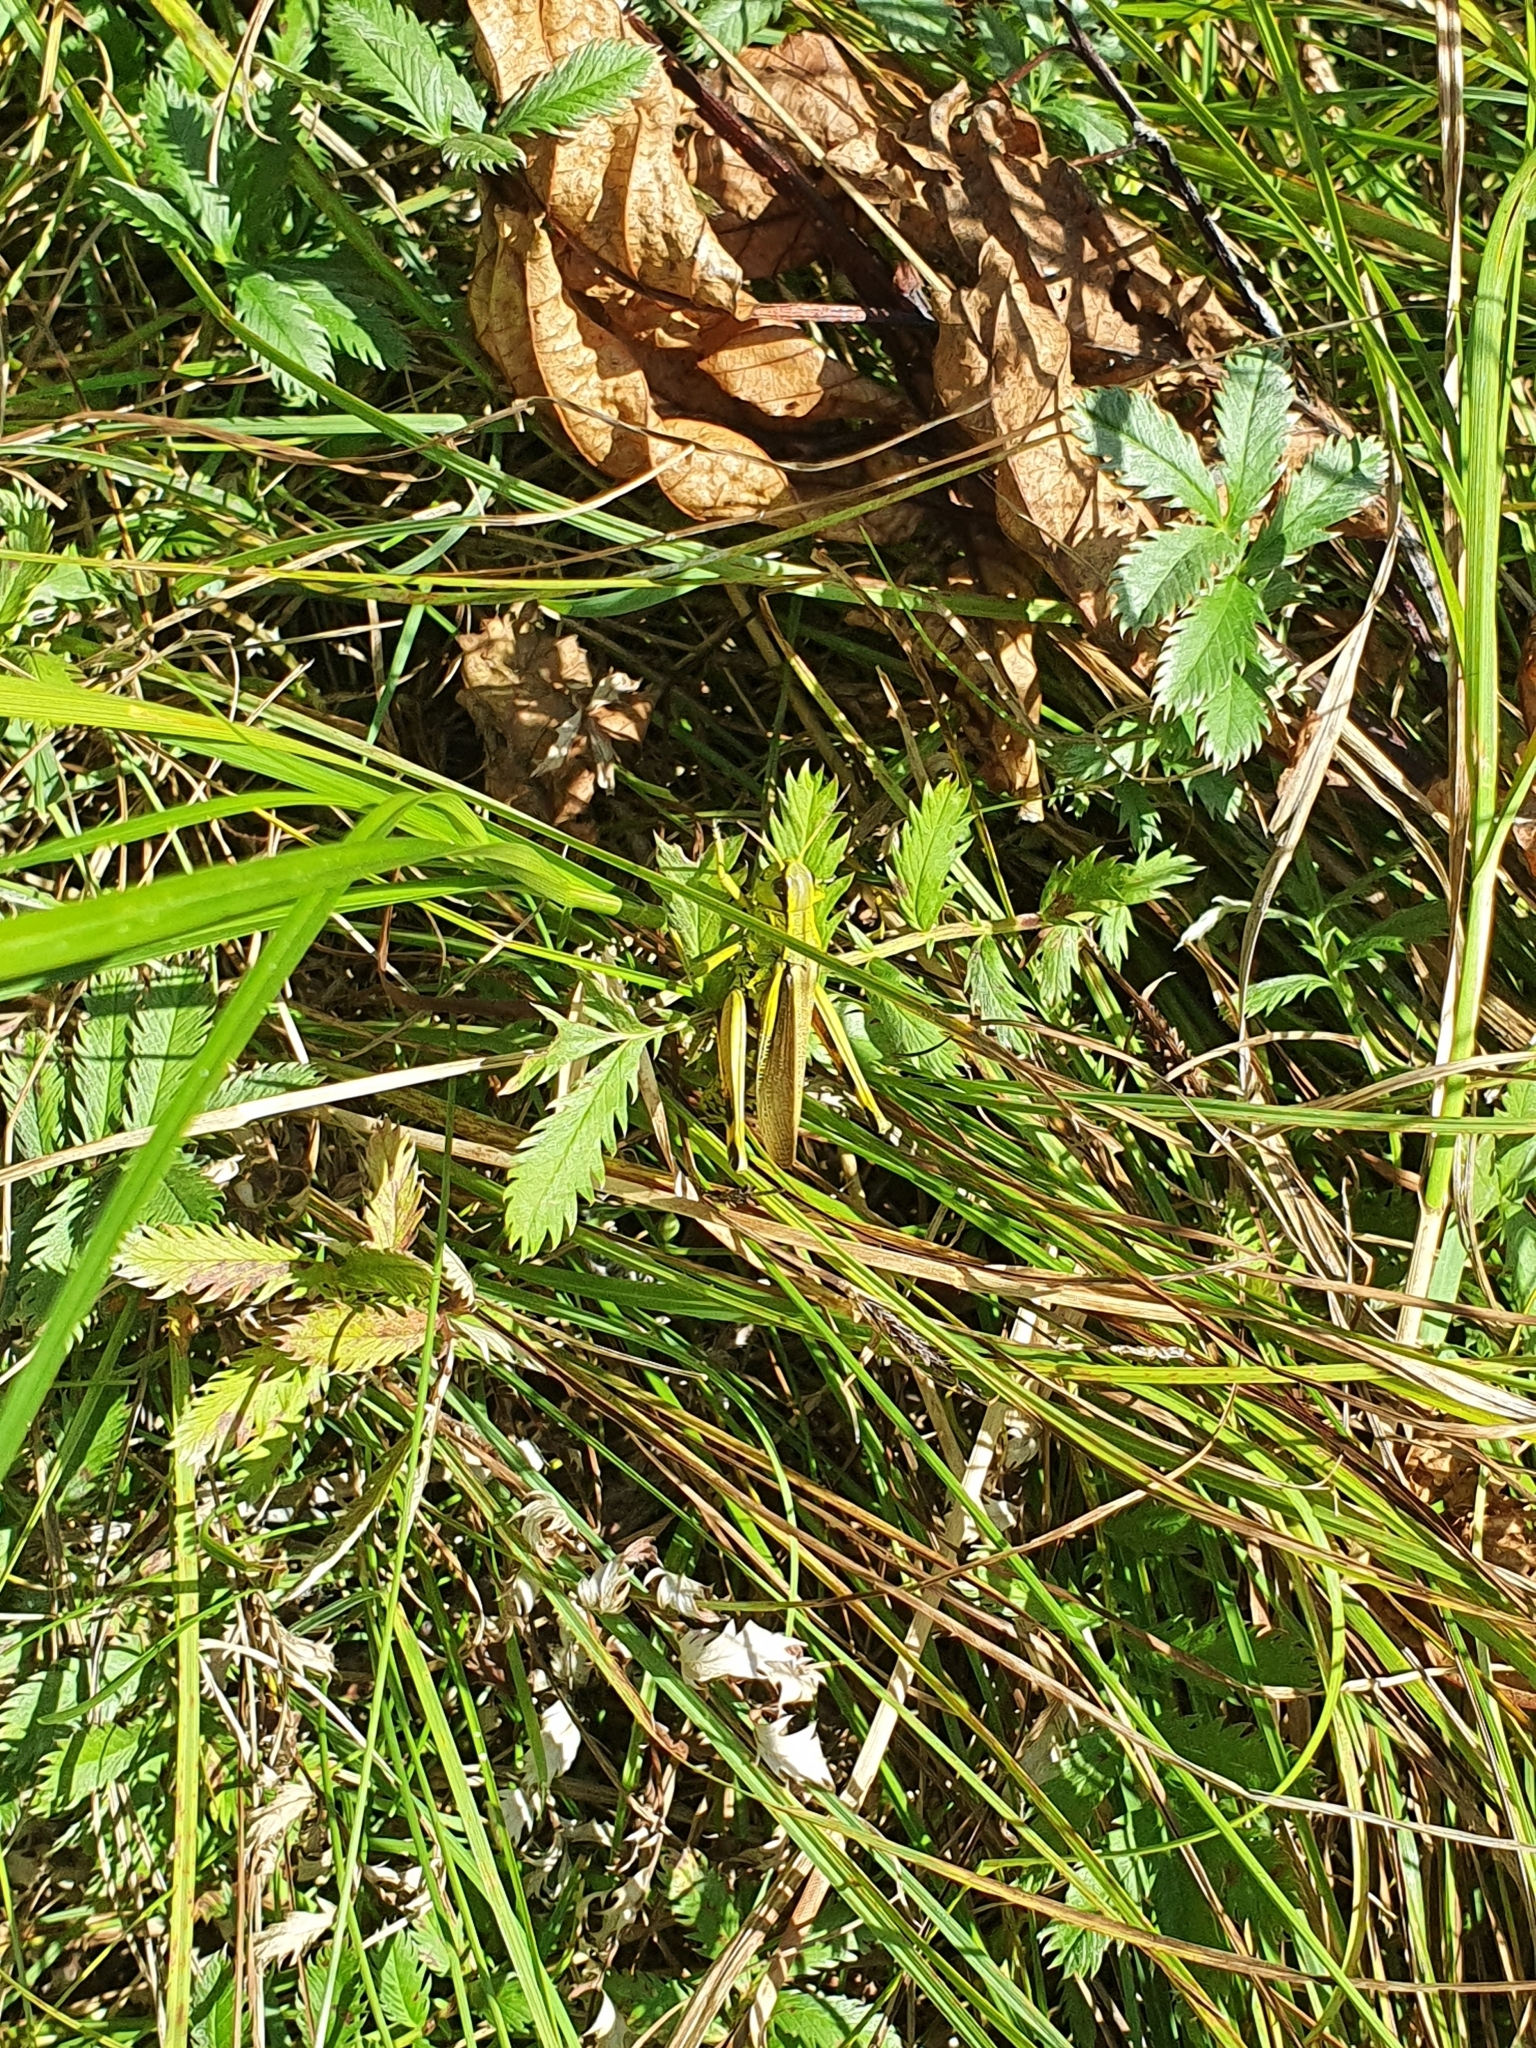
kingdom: Animalia
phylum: Arthropoda
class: Insecta
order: Orthoptera
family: Acrididae
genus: Stethophyma
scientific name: Stethophyma grossum
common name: Large marsh grasshopper
